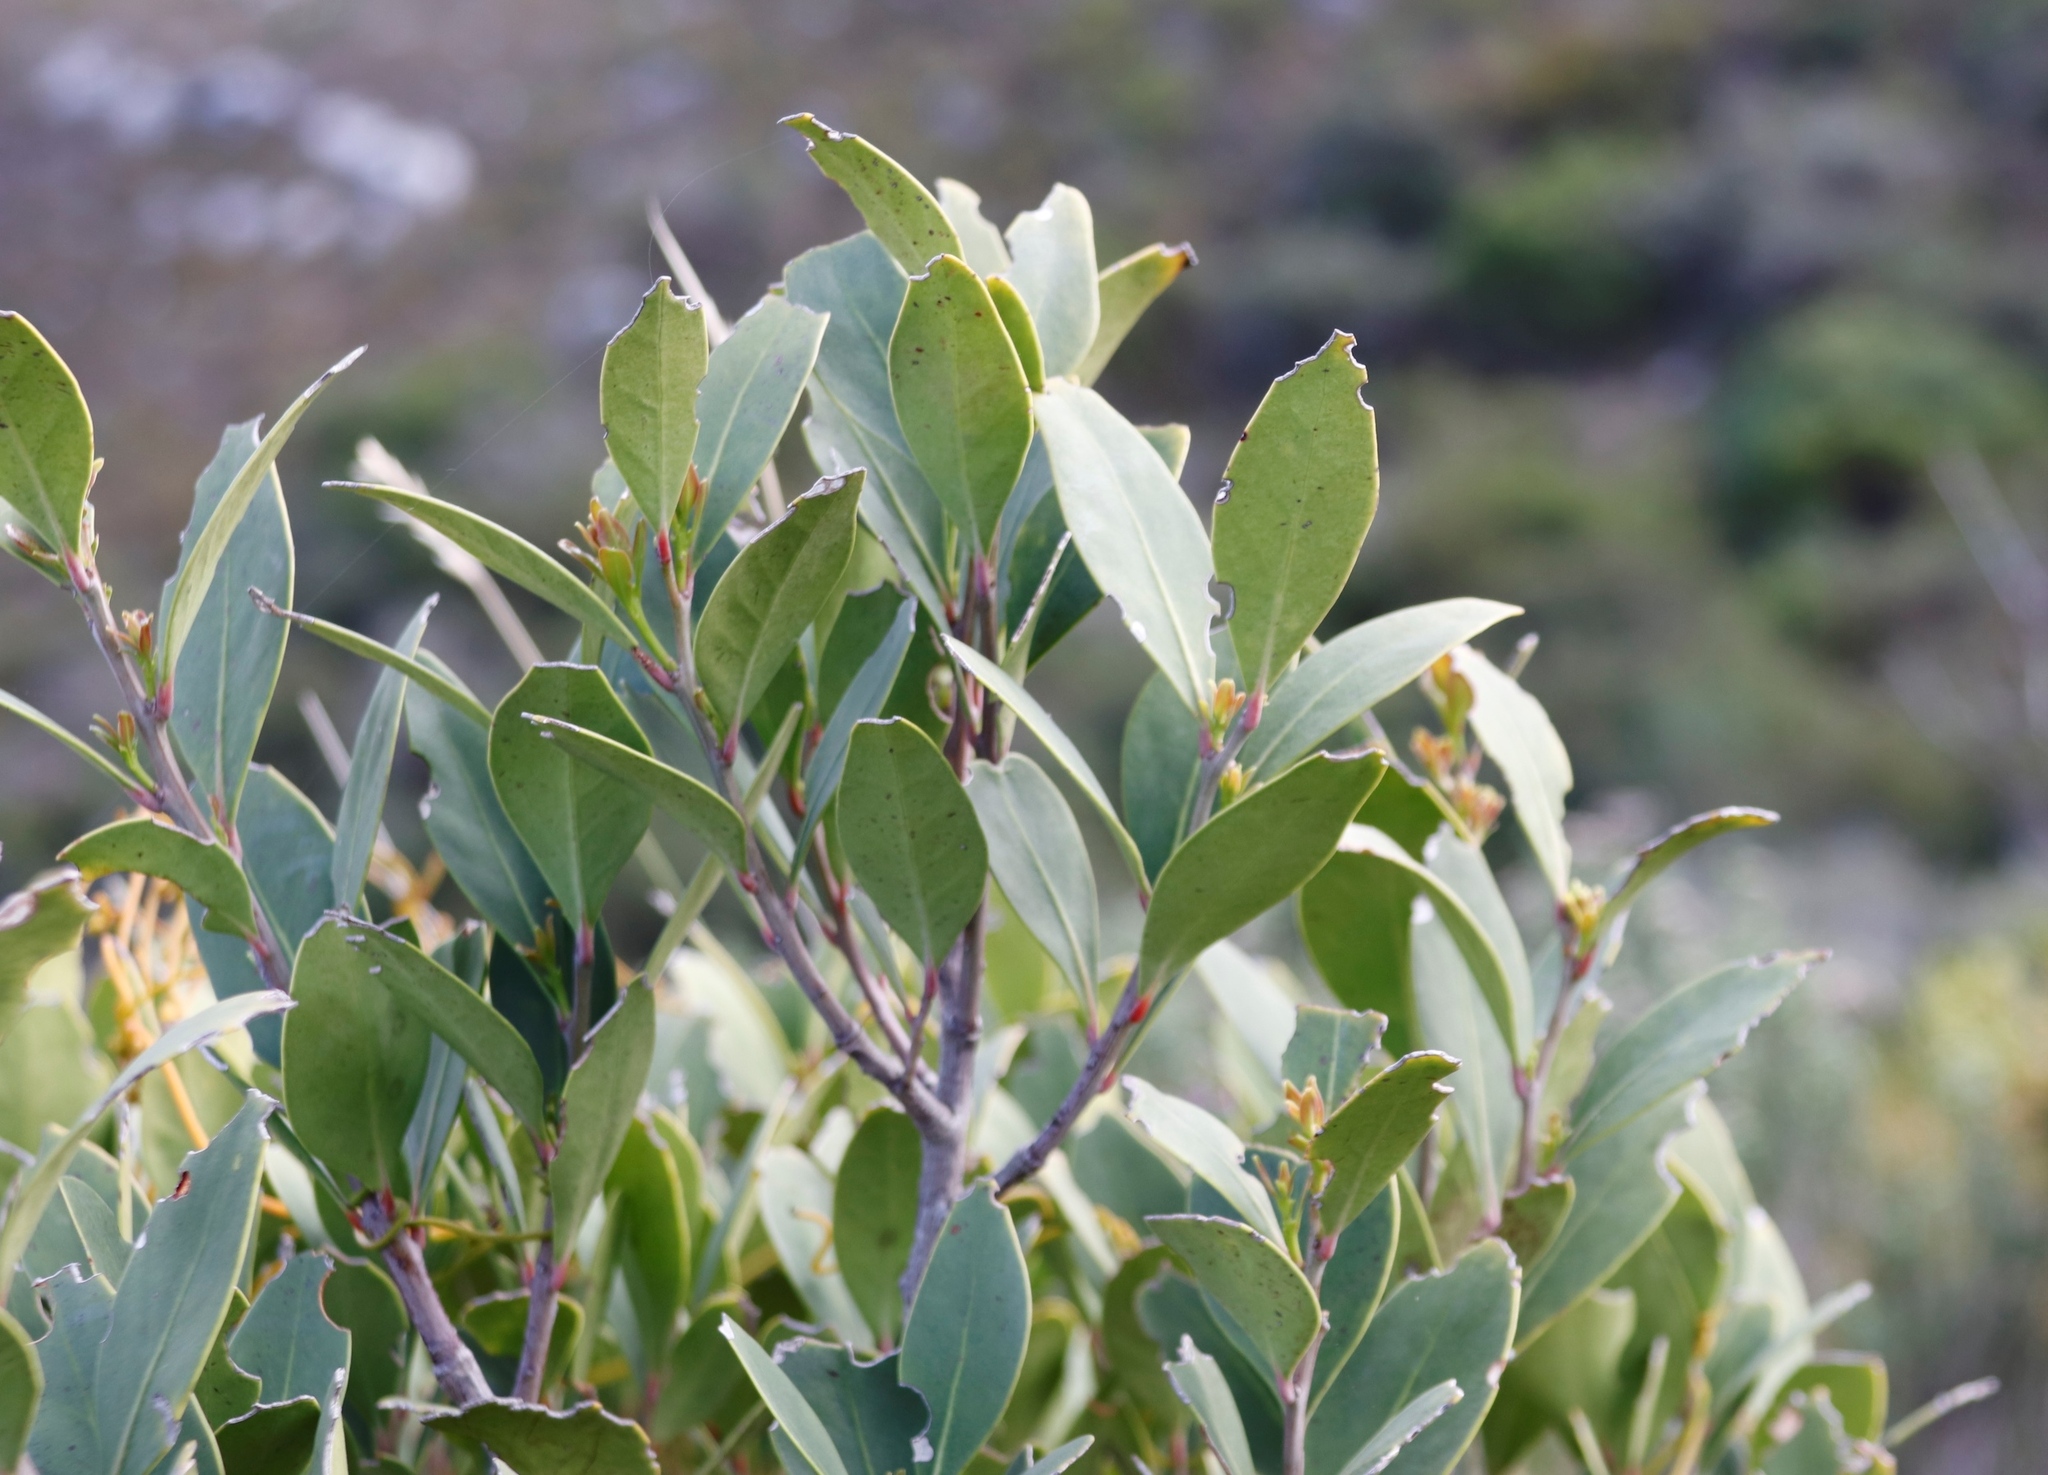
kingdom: Plantae
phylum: Tracheophyta
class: Magnoliopsida
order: Celastrales
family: Celastraceae
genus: Gymnosporia
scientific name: Gymnosporia laurina
